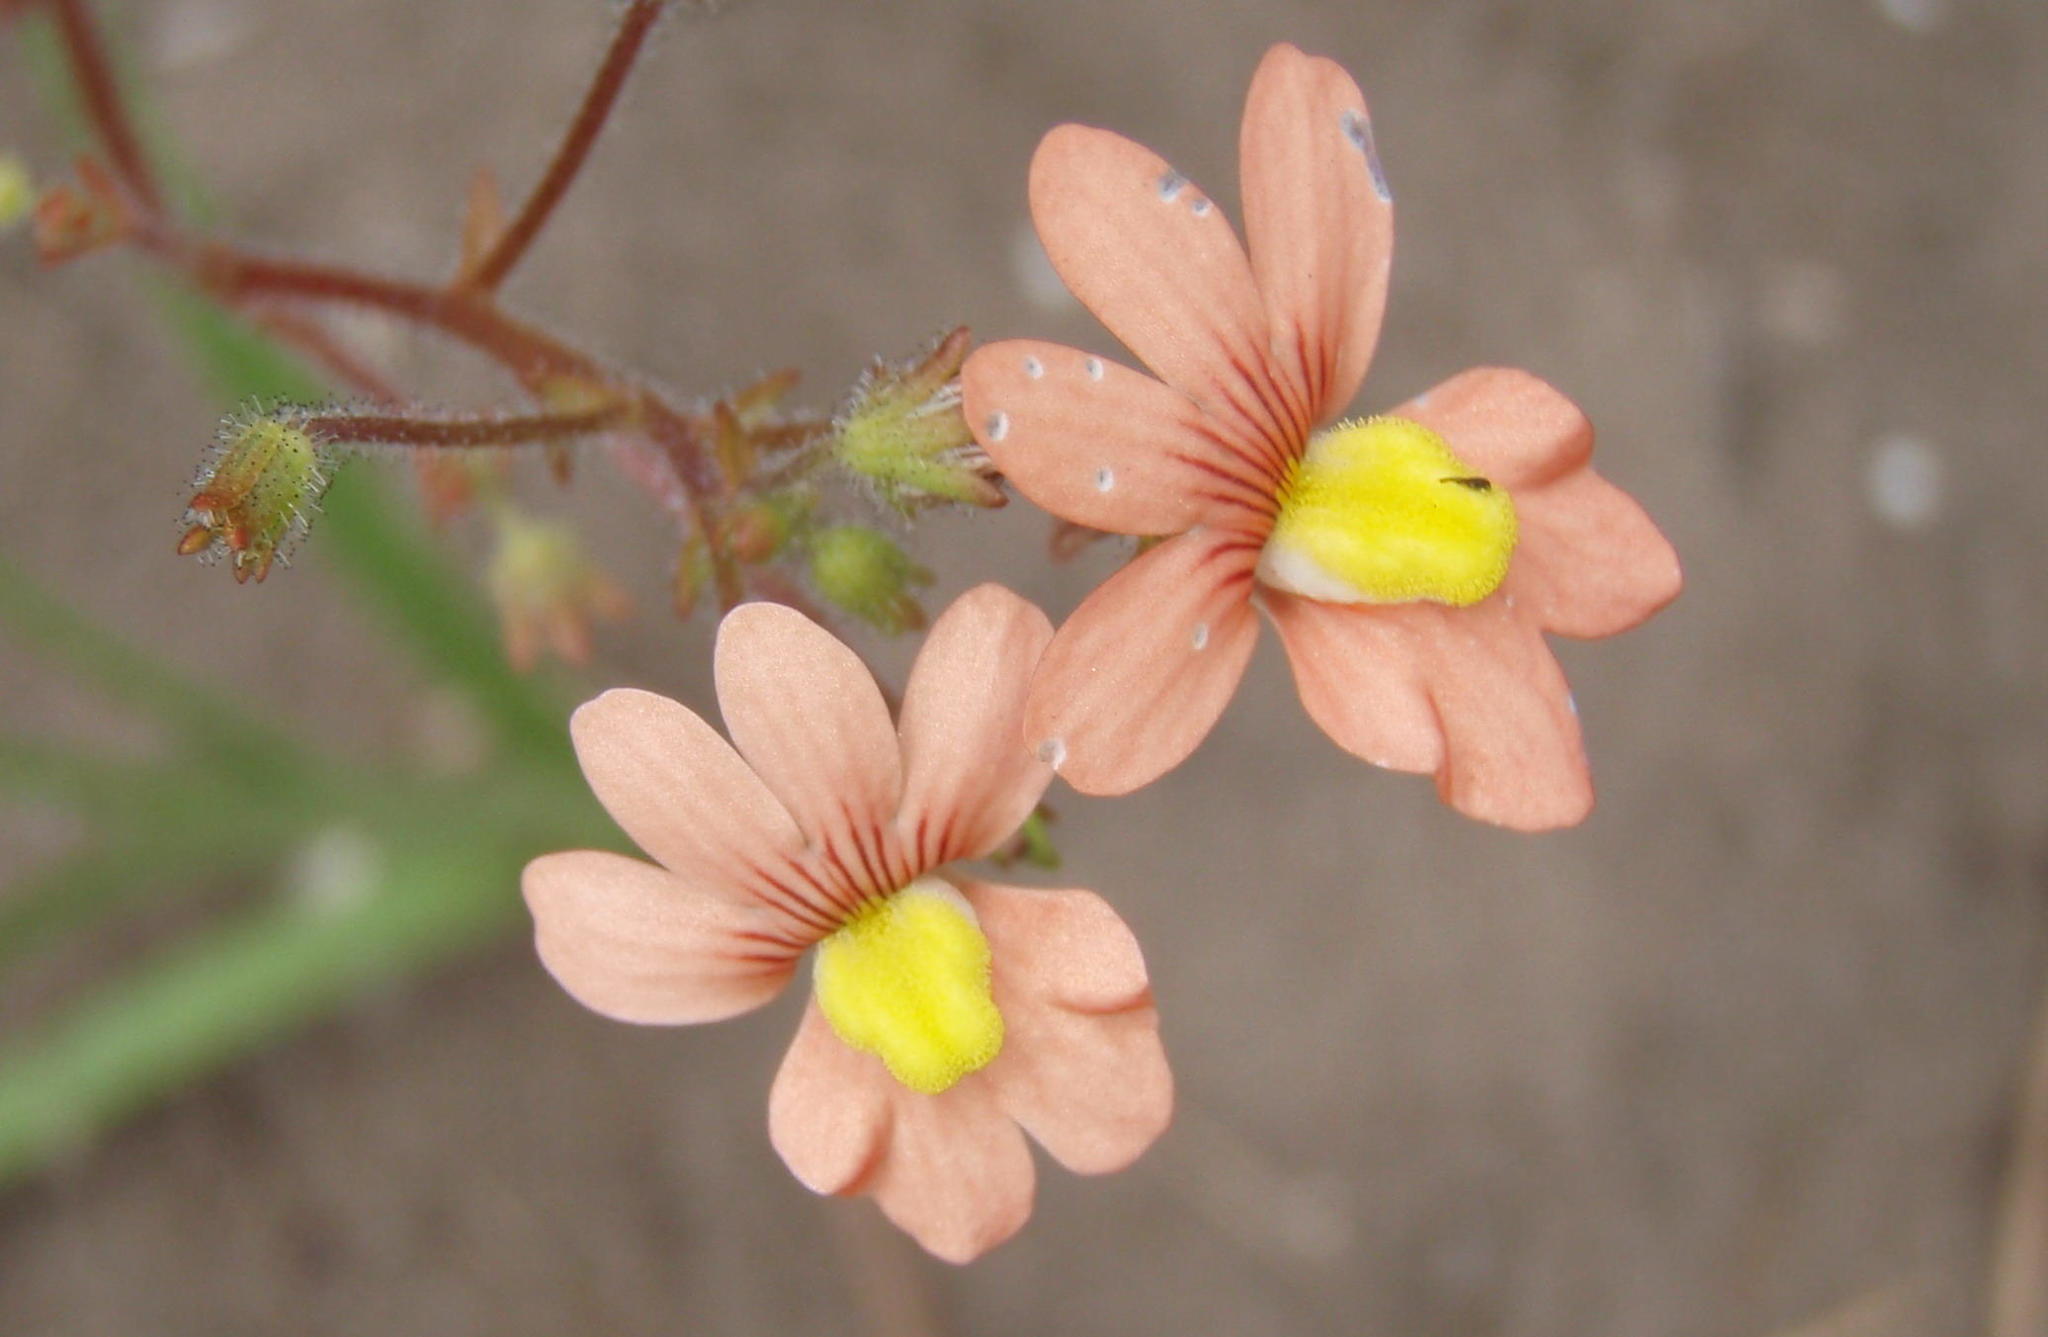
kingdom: Plantae
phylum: Tracheophyta
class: Magnoliopsida
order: Lamiales
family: Scrophulariaceae
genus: Nemesia
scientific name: Nemesia versicolor
